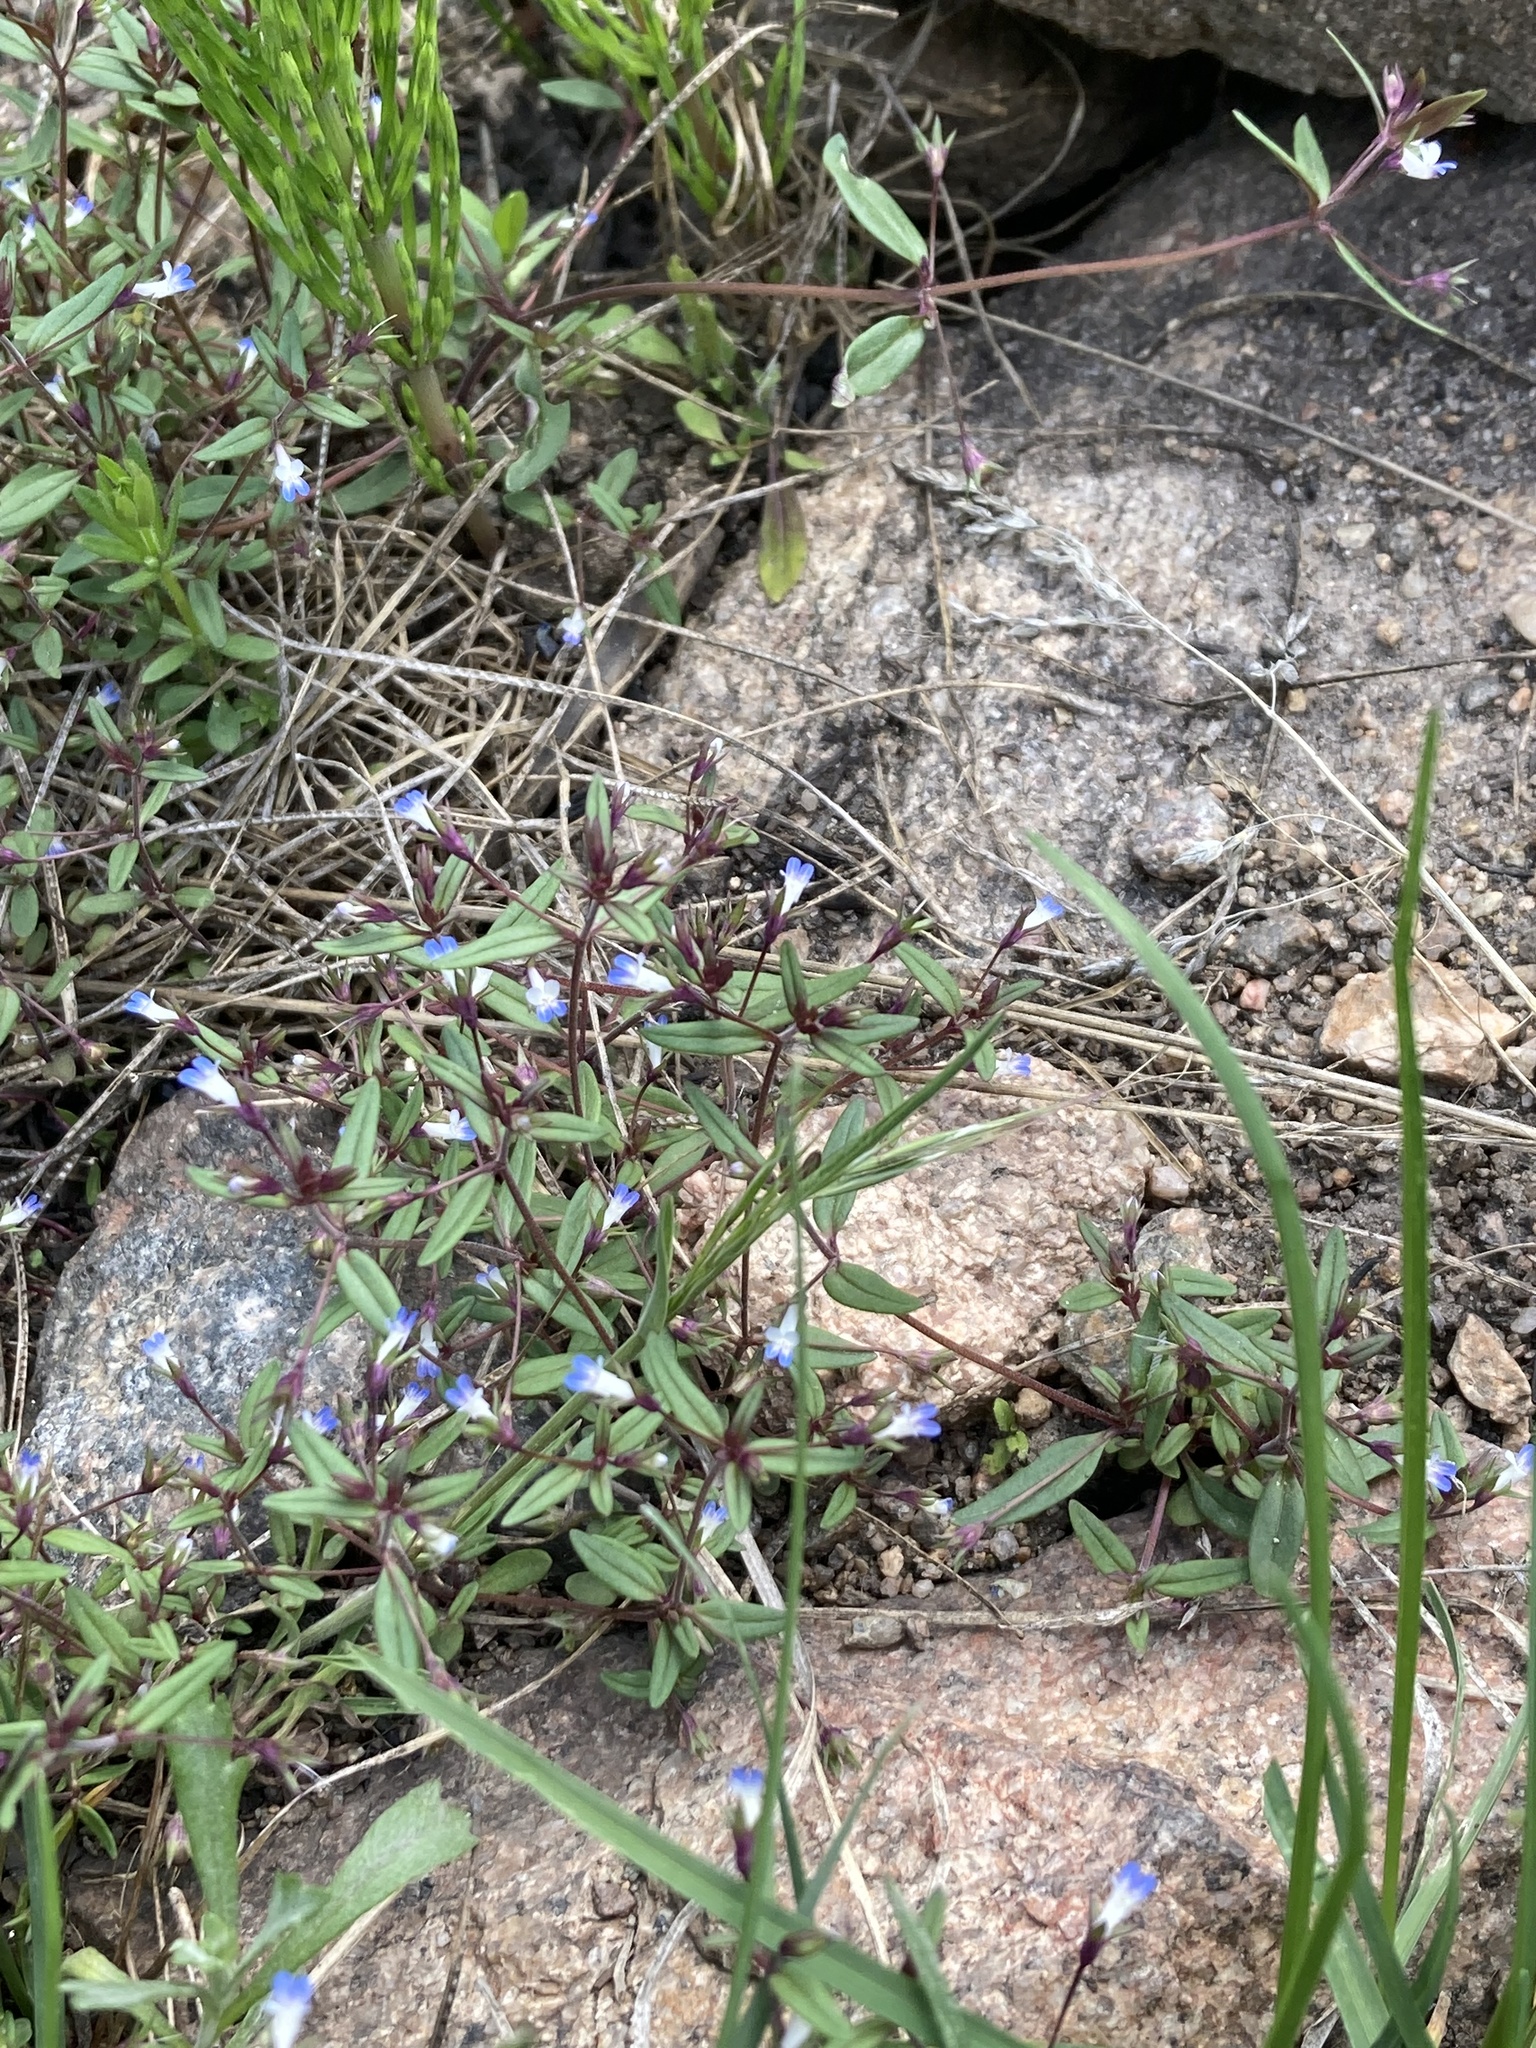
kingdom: Plantae
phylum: Tracheophyta
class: Magnoliopsida
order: Lamiales
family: Plantaginaceae
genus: Collinsia
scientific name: Collinsia parviflora
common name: Blue-lips
